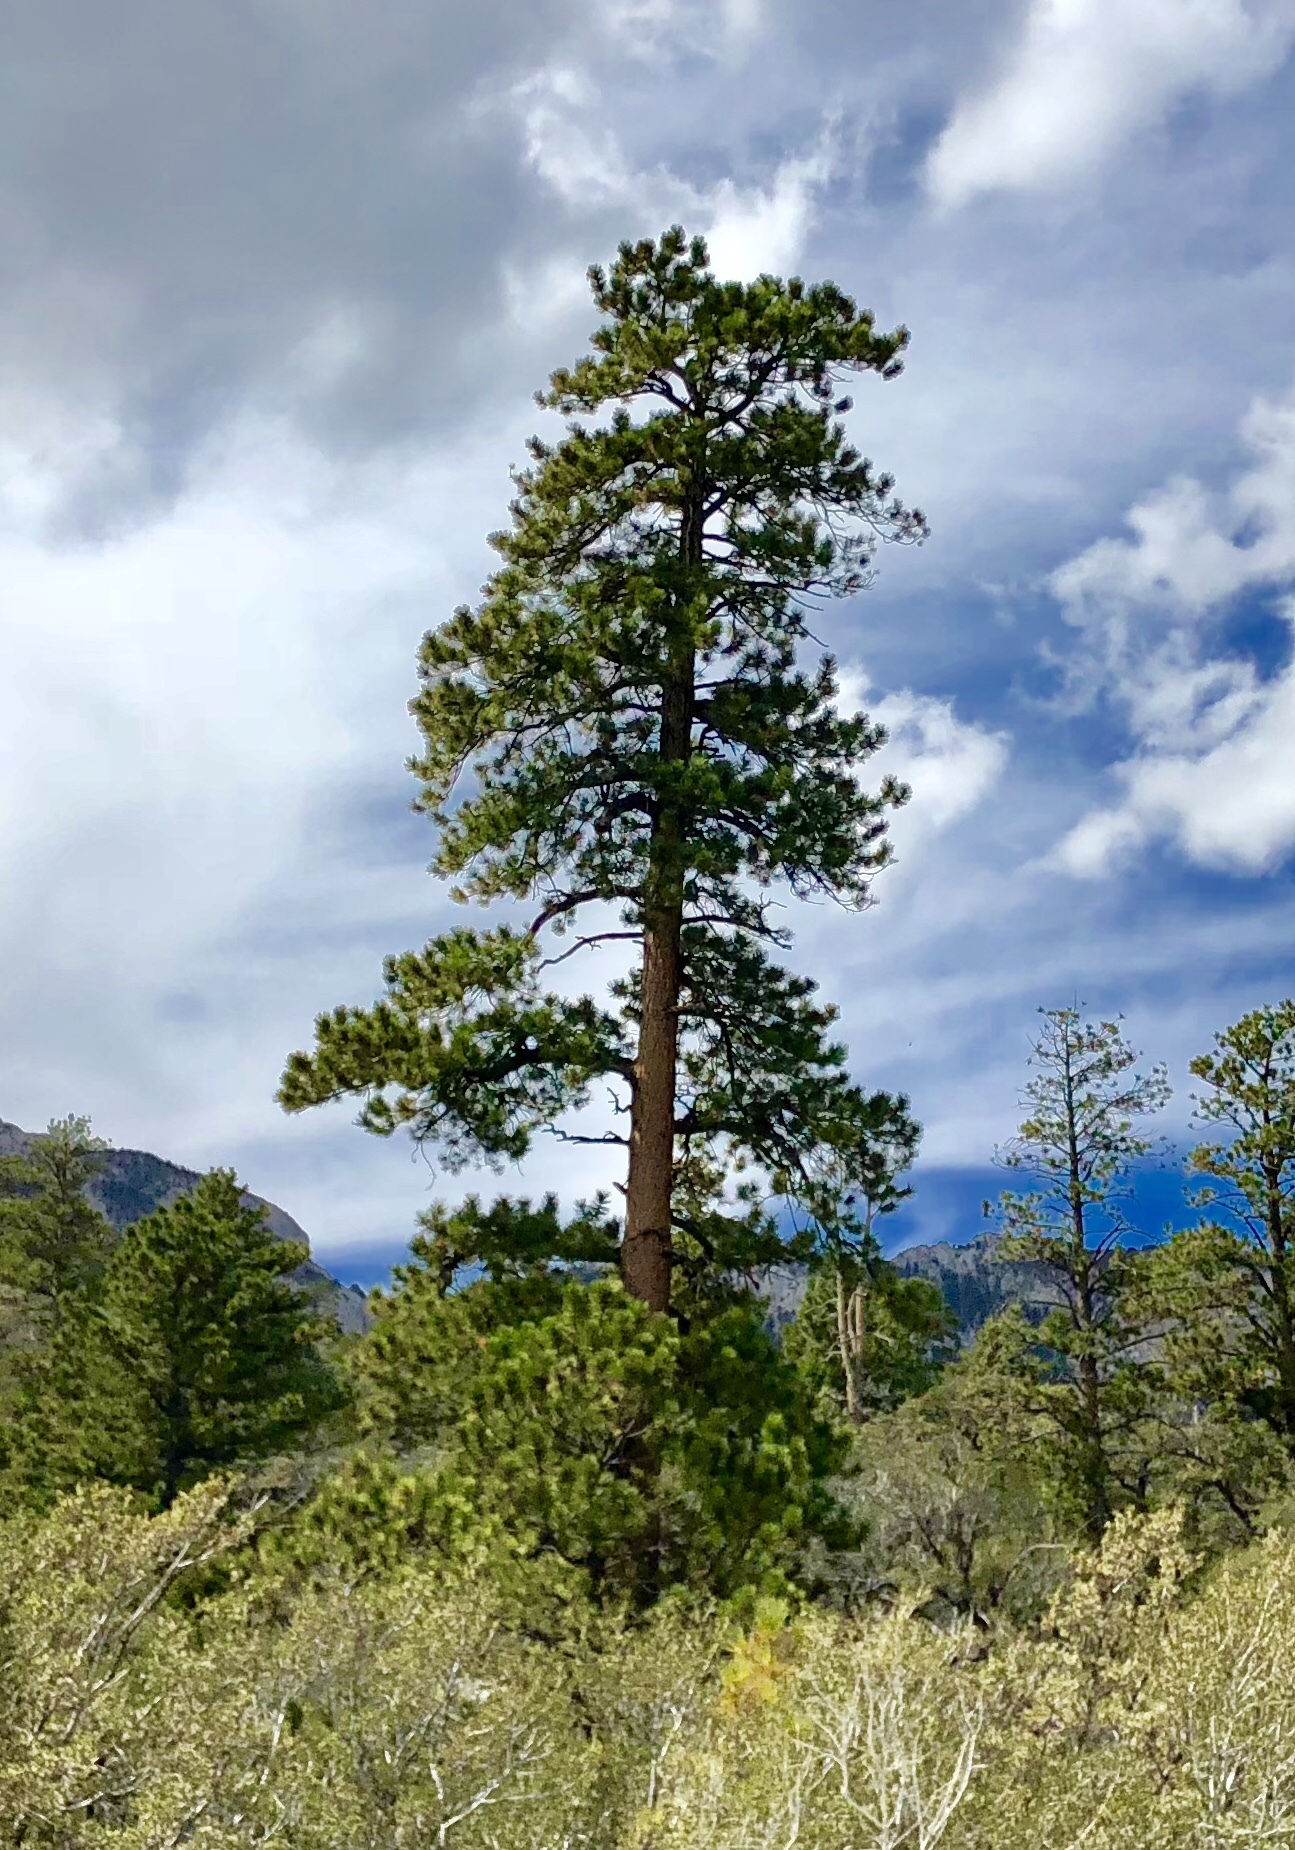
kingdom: Plantae
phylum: Tracheophyta
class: Pinopsida
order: Pinales
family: Pinaceae
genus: Pinus
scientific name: Pinus ponderosa
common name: Western yellow-pine
